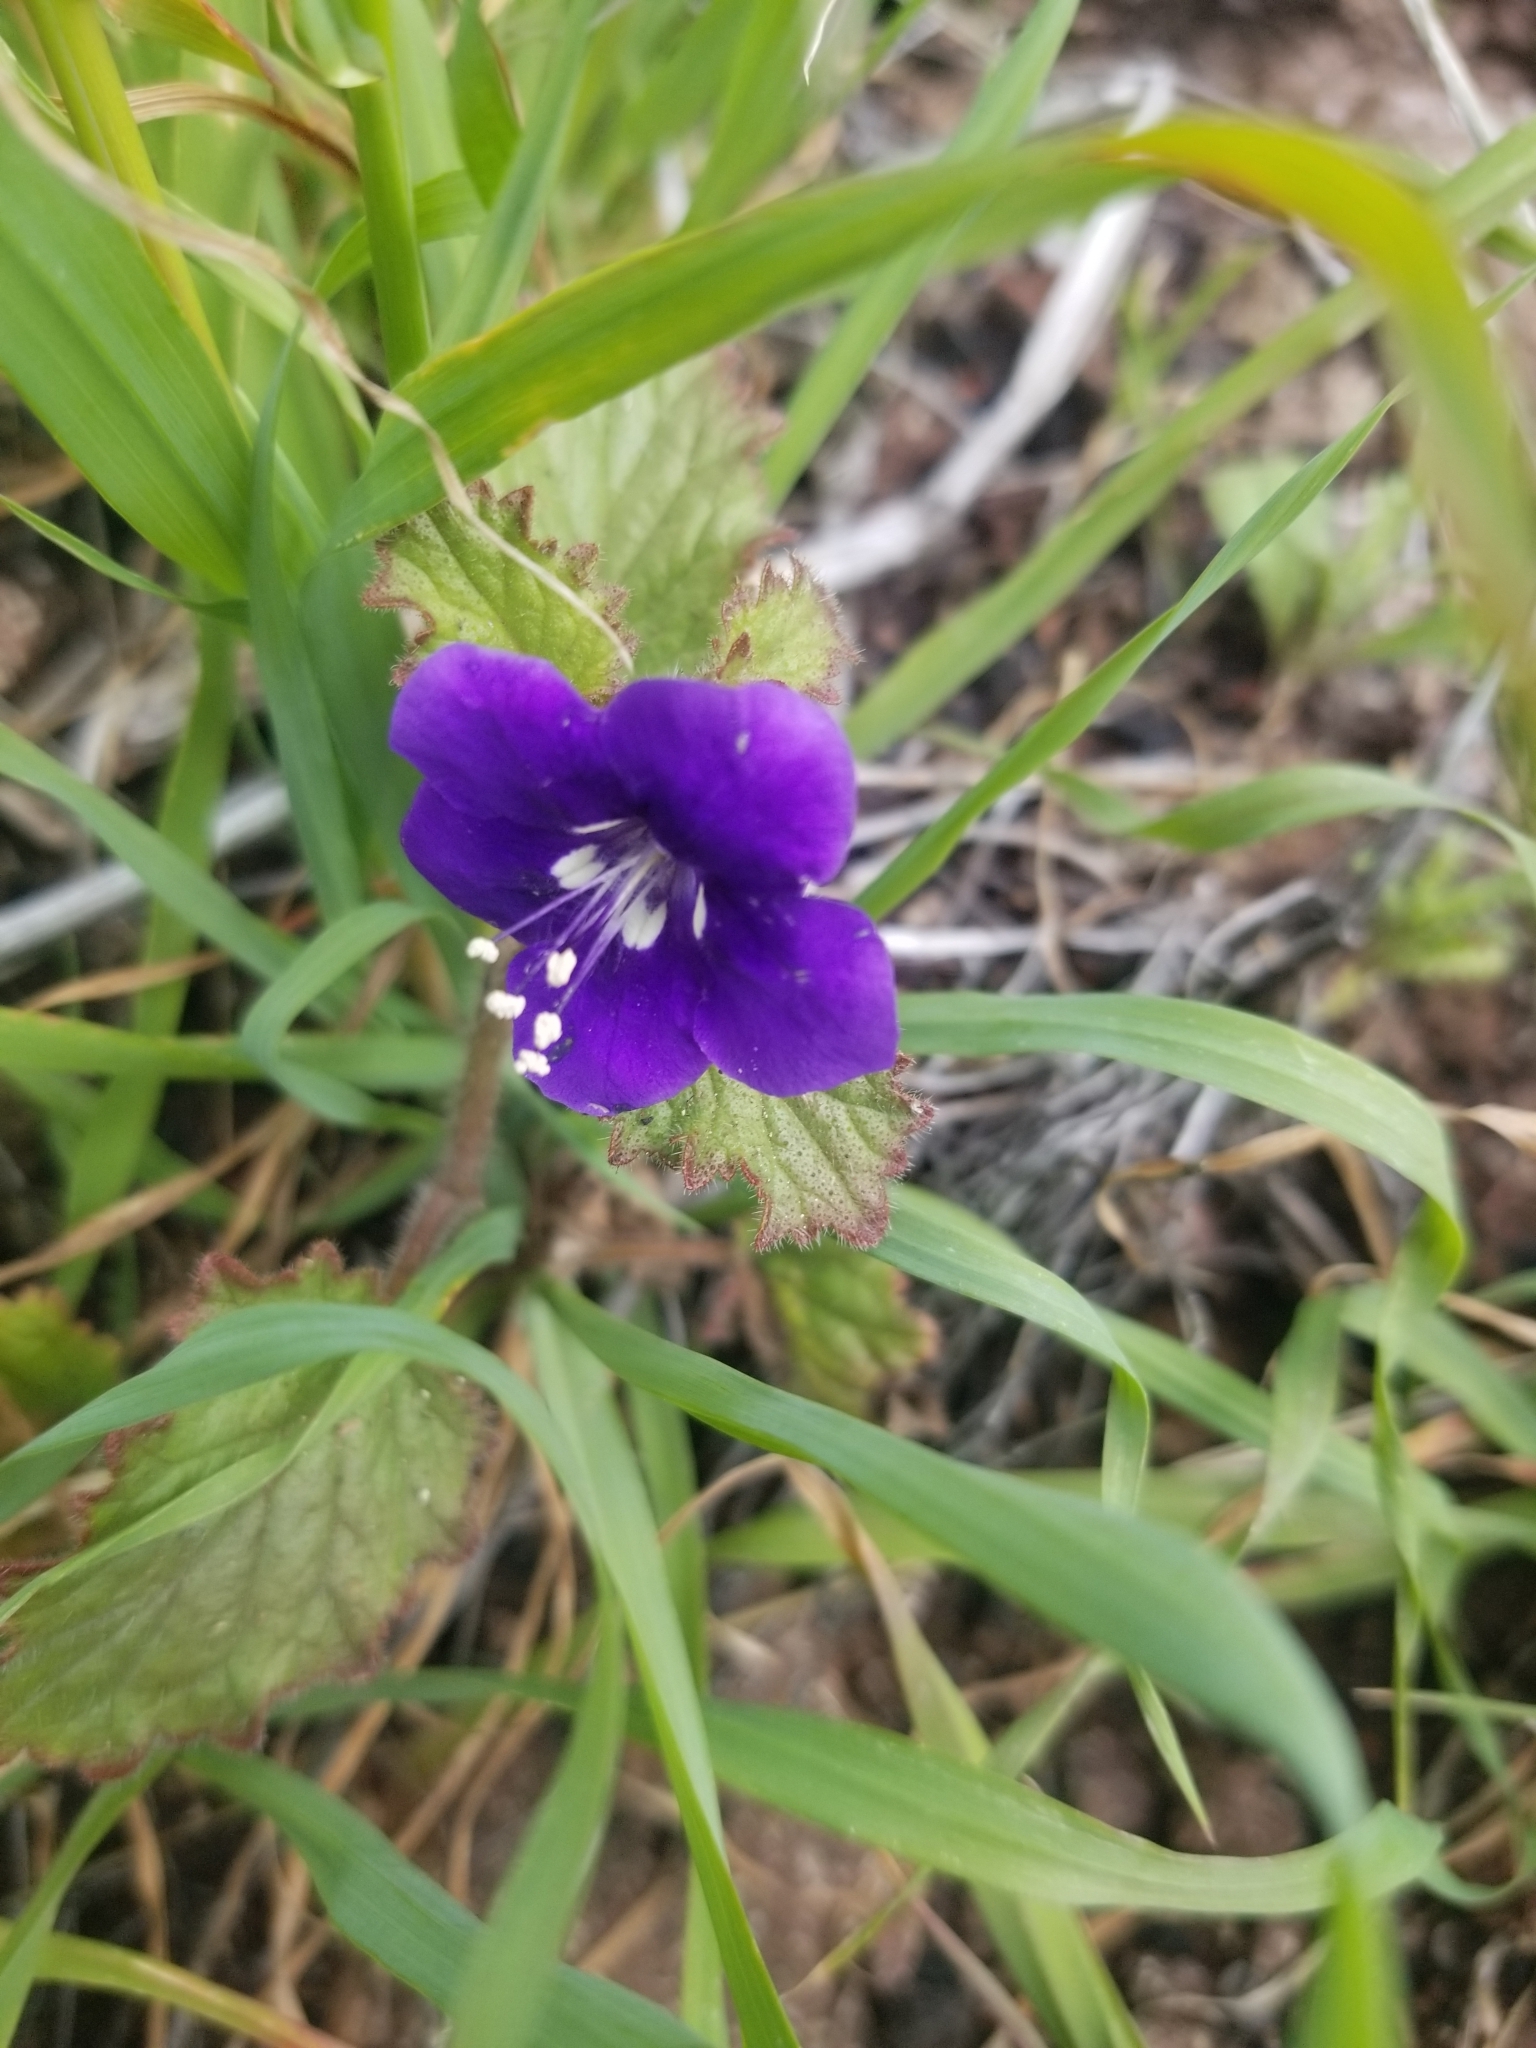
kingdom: Plantae
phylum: Tracheophyta
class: Magnoliopsida
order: Boraginales
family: Hydrophyllaceae
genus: Phacelia
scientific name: Phacelia parryi
